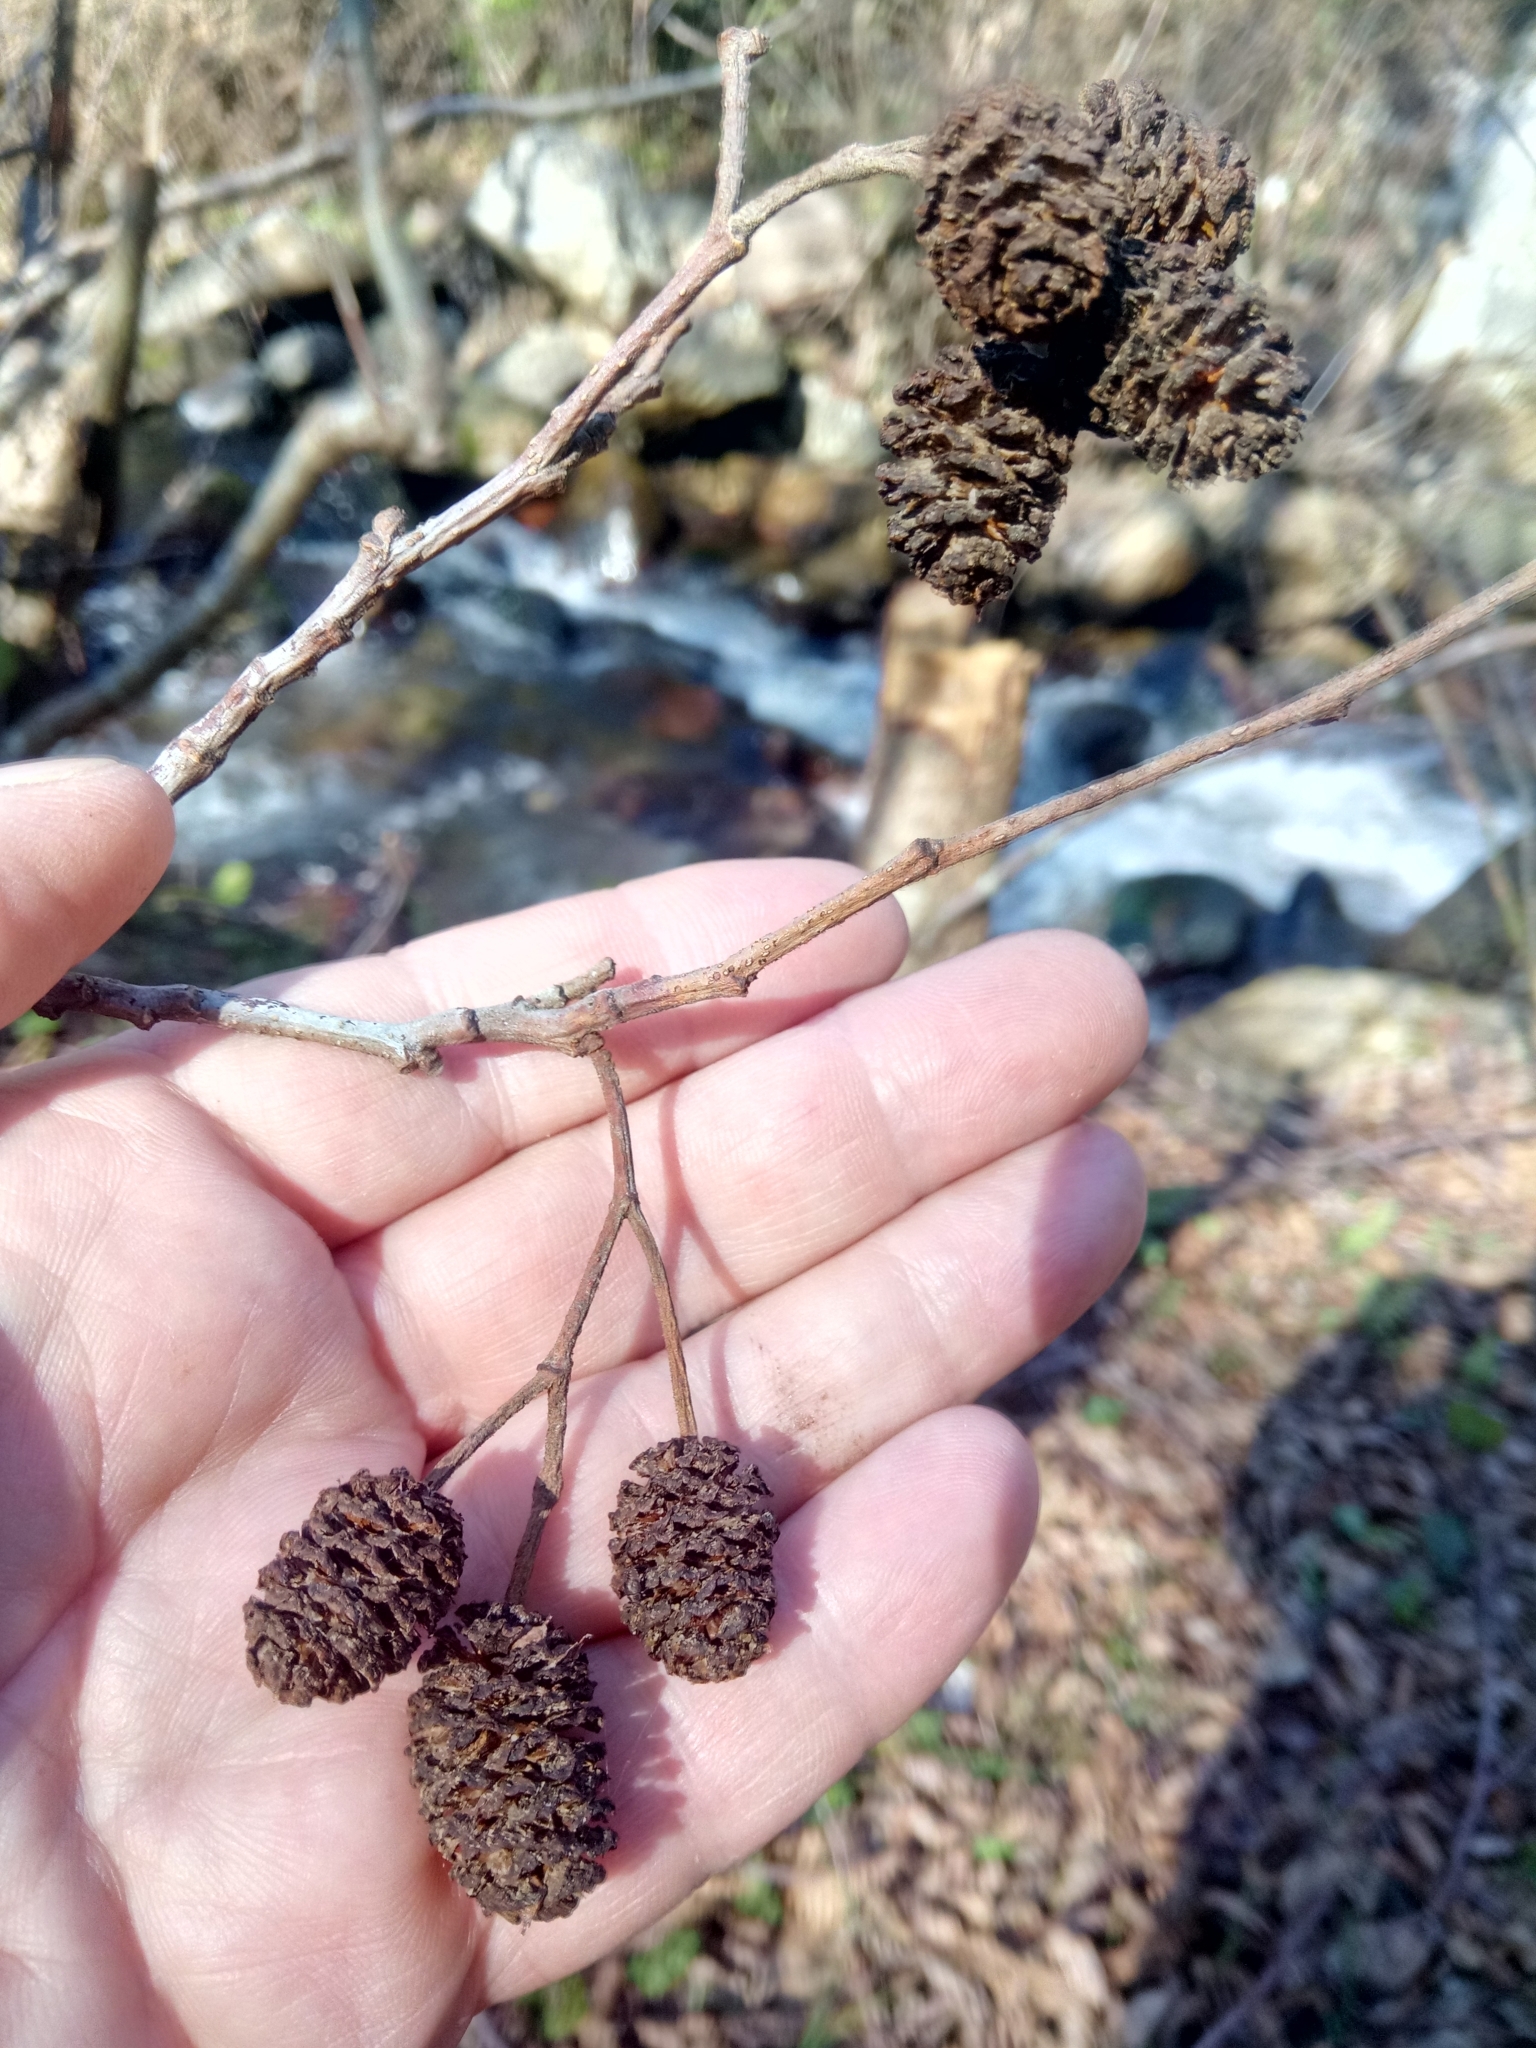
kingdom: Plantae
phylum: Tracheophyta
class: Magnoliopsida
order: Fagales
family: Betulaceae
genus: Alnus
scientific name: Alnus glutinosa
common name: Black alder
